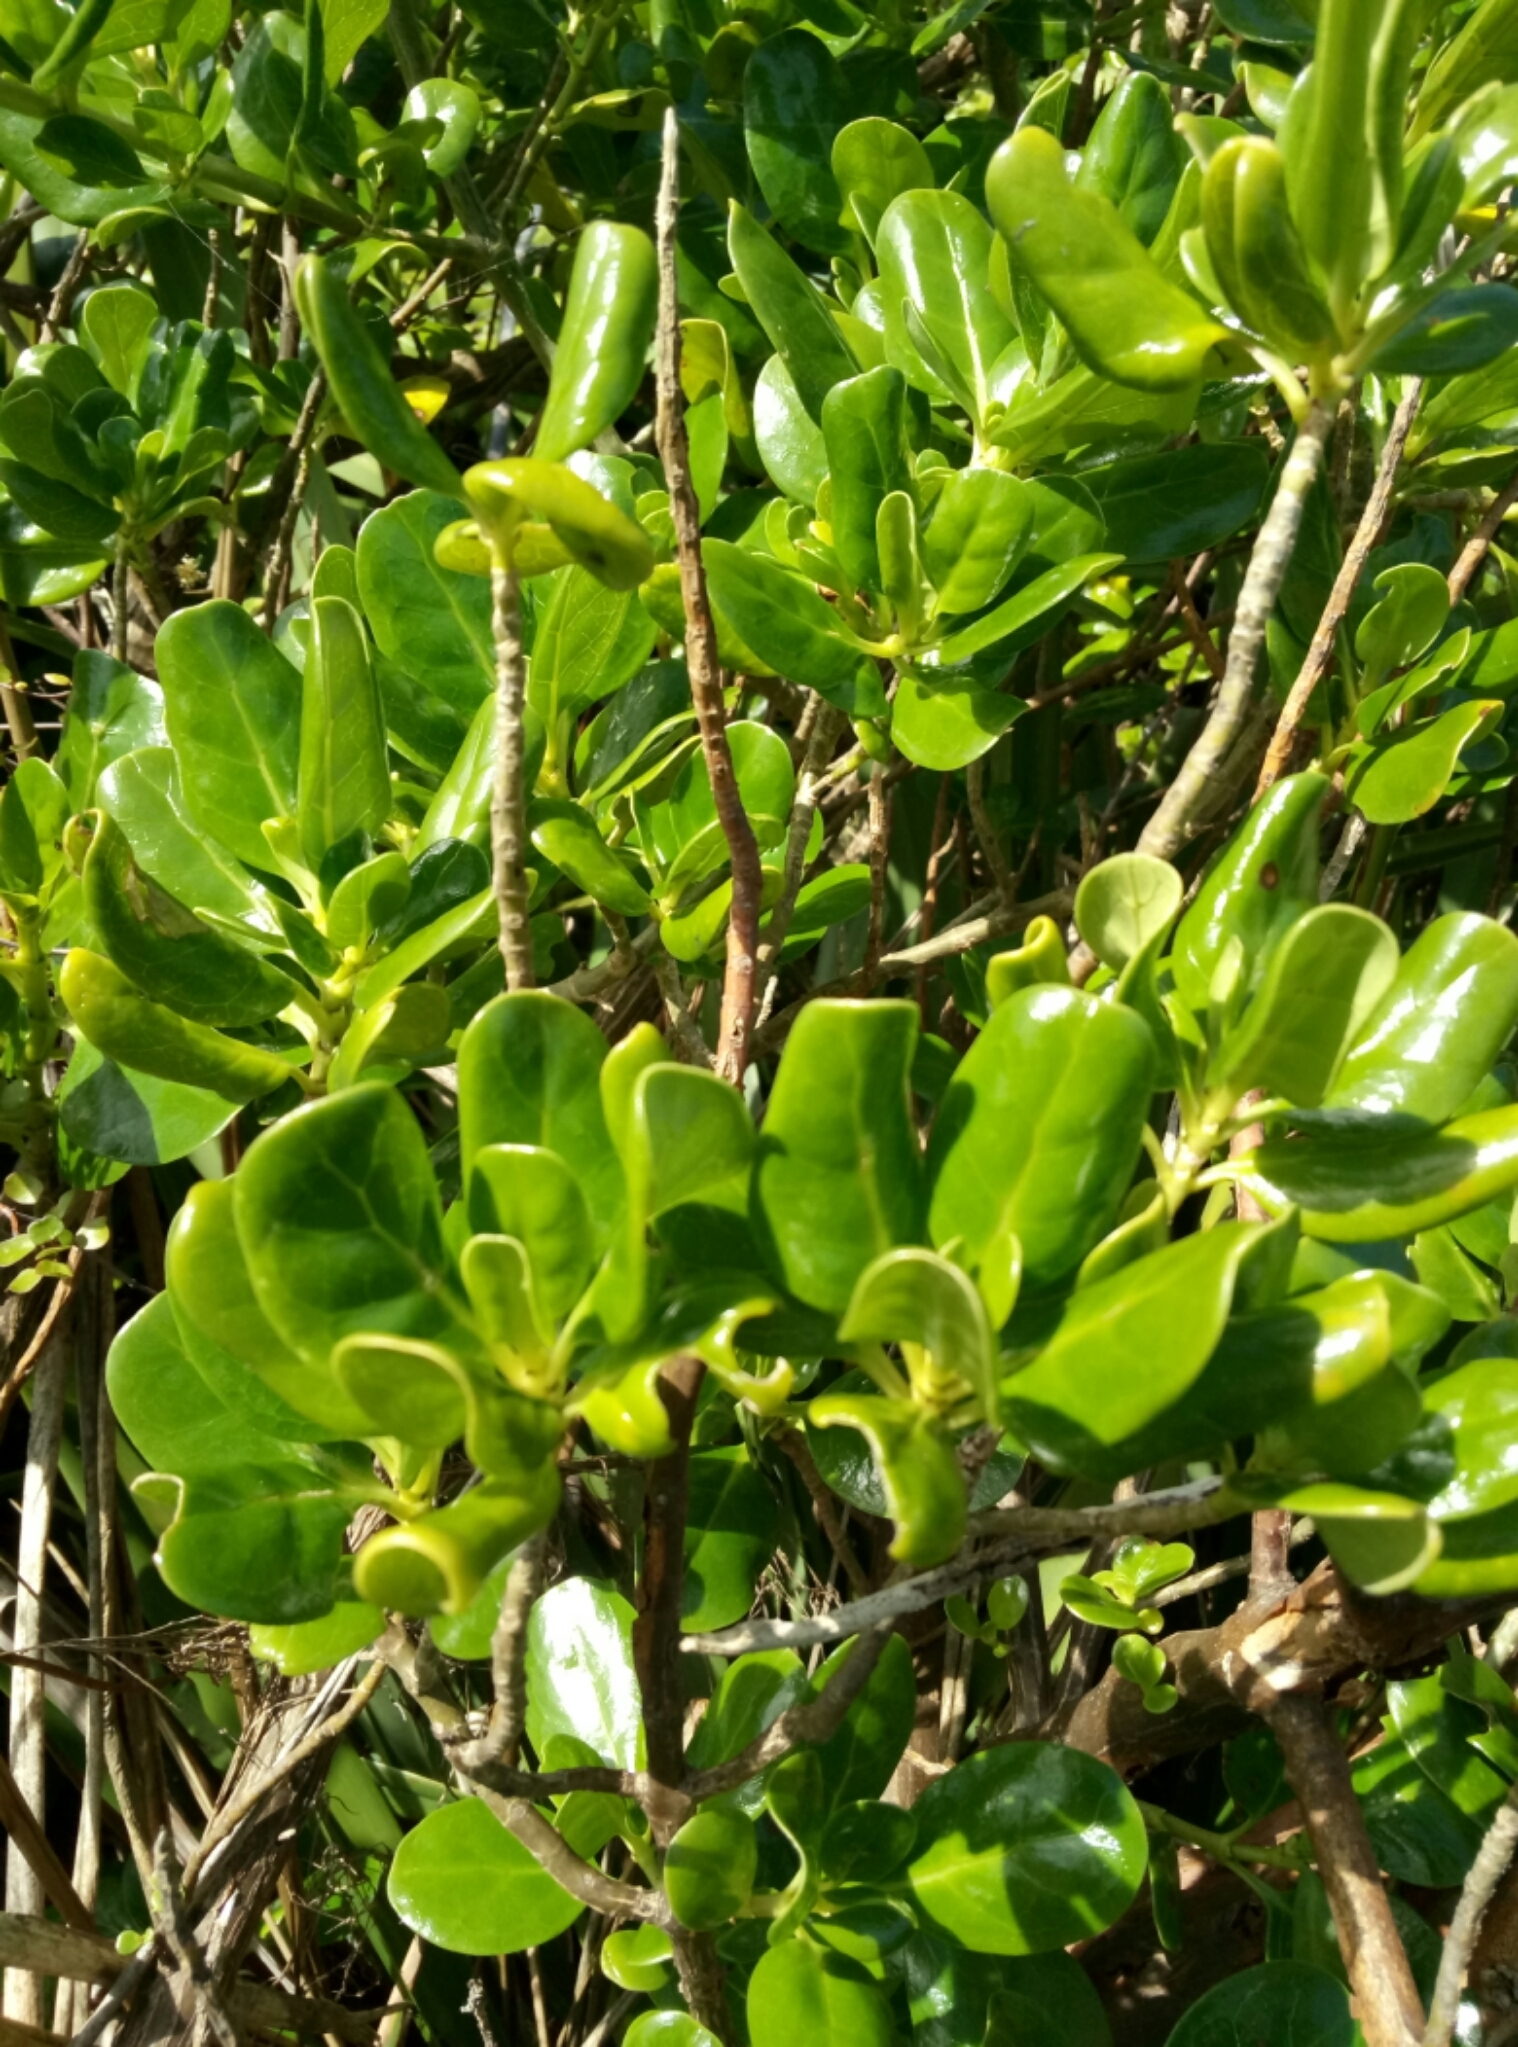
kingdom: Plantae
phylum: Tracheophyta
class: Magnoliopsida
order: Gentianales
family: Rubiaceae
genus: Coprosma
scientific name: Coprosma repens
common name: Tree bedstraw
